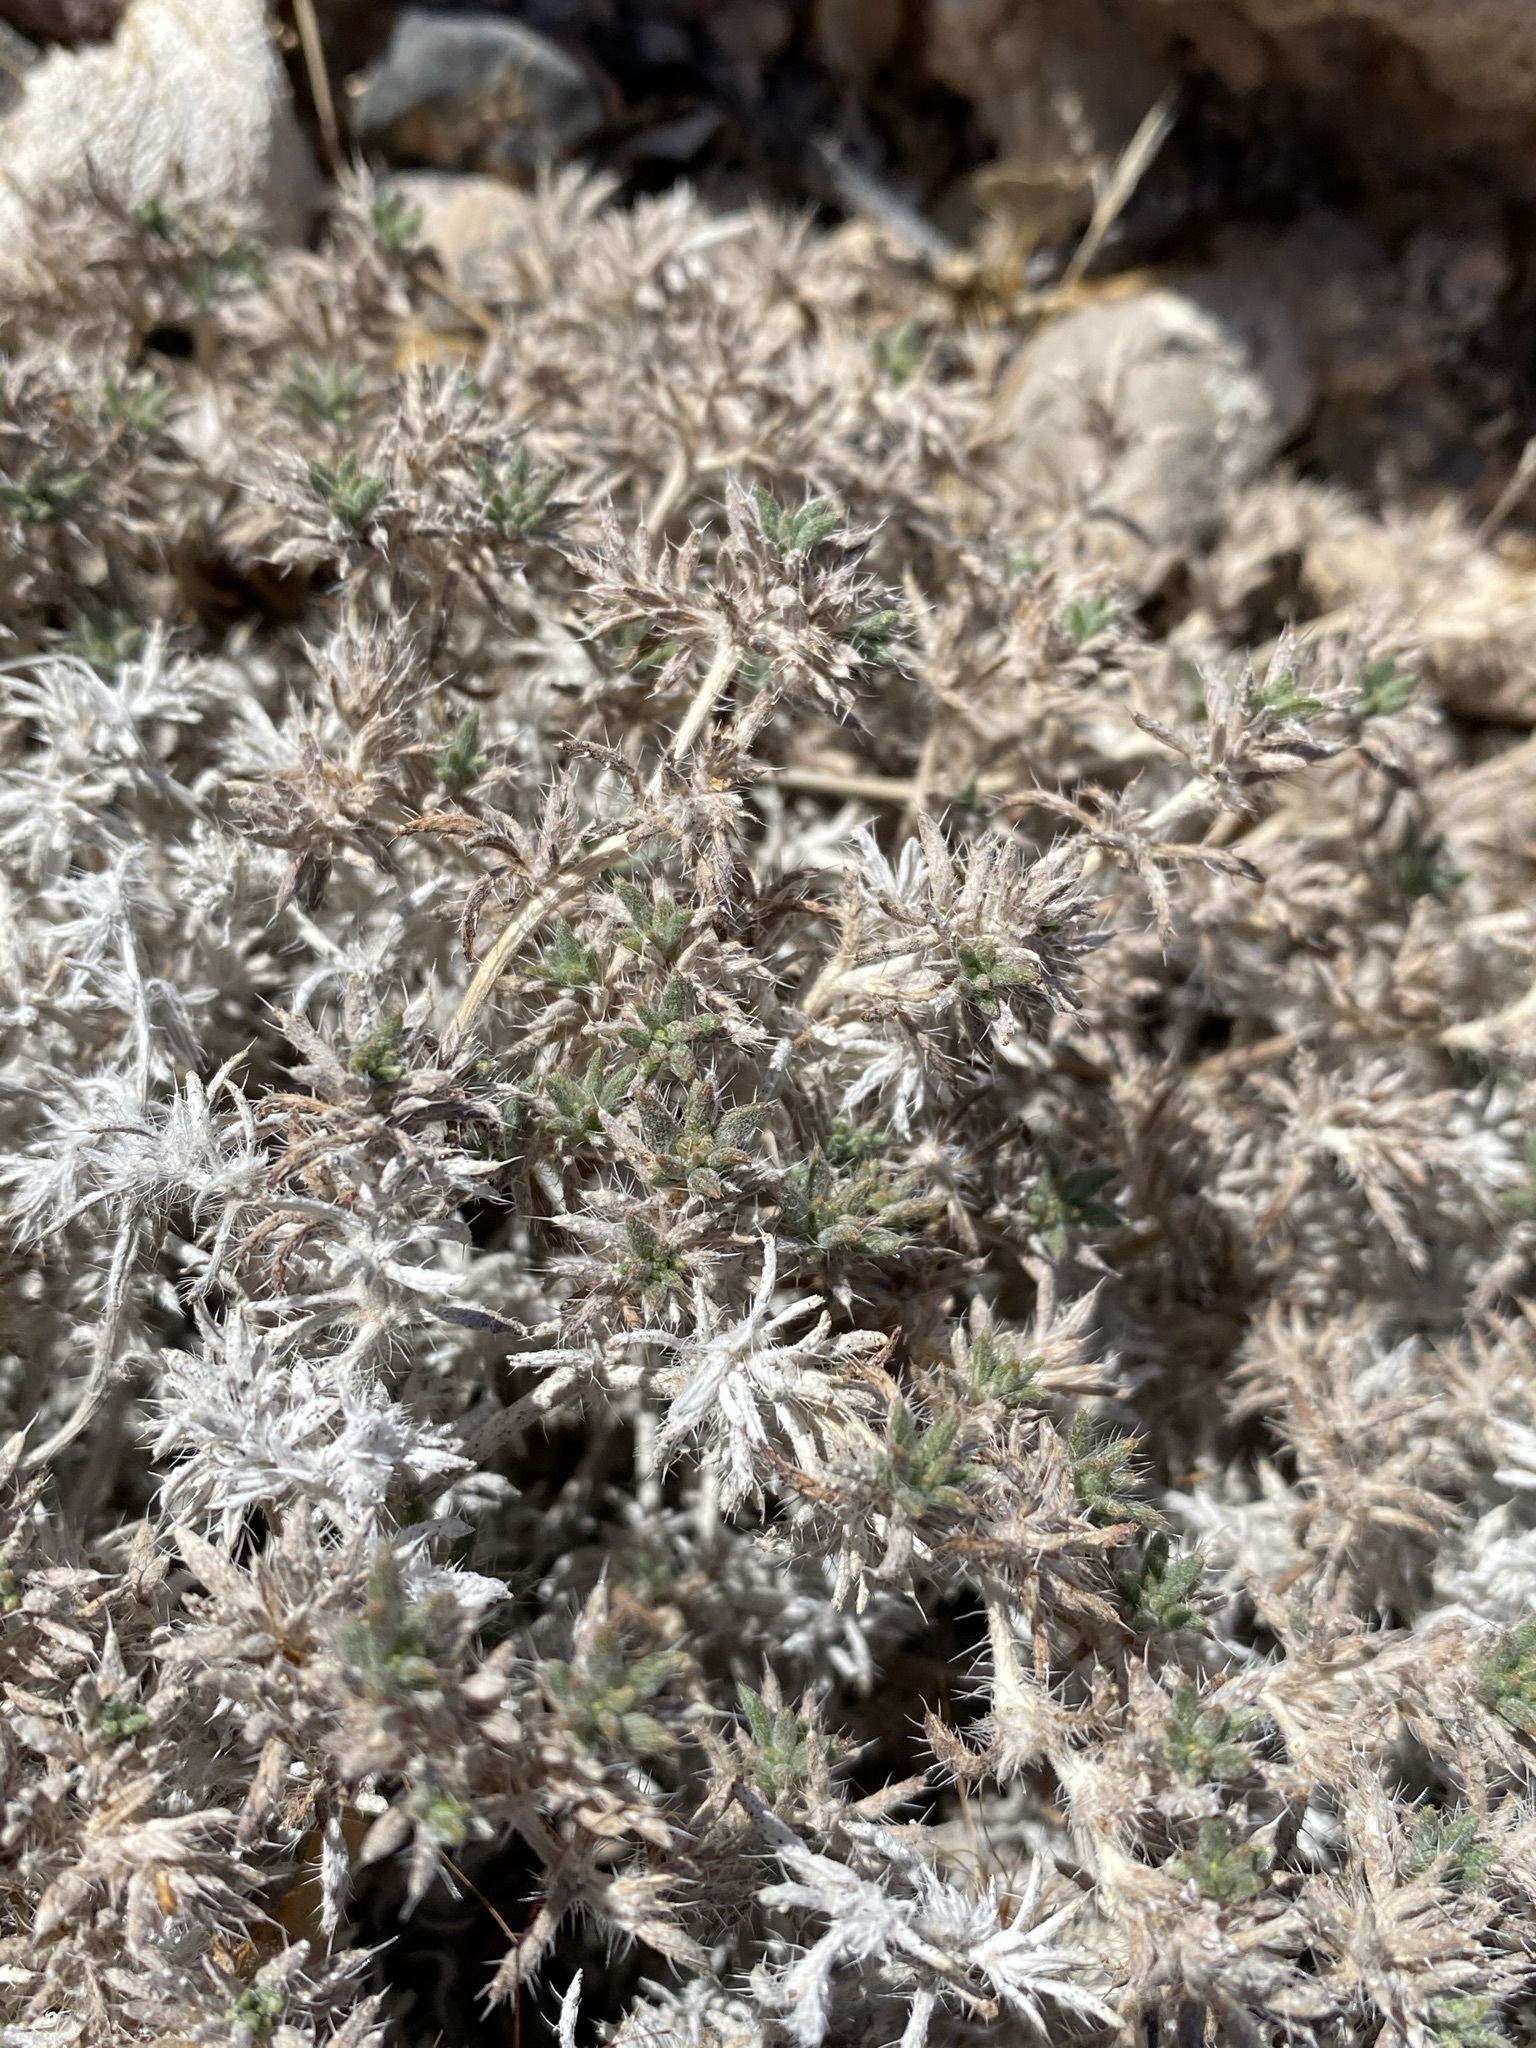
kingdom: Plantae
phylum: Tracheophyta
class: Magnoliopsida
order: Boraginales
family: Ehretiaceae
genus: Tiquilia
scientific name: Tiquilia latior
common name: Matted tiquilia
